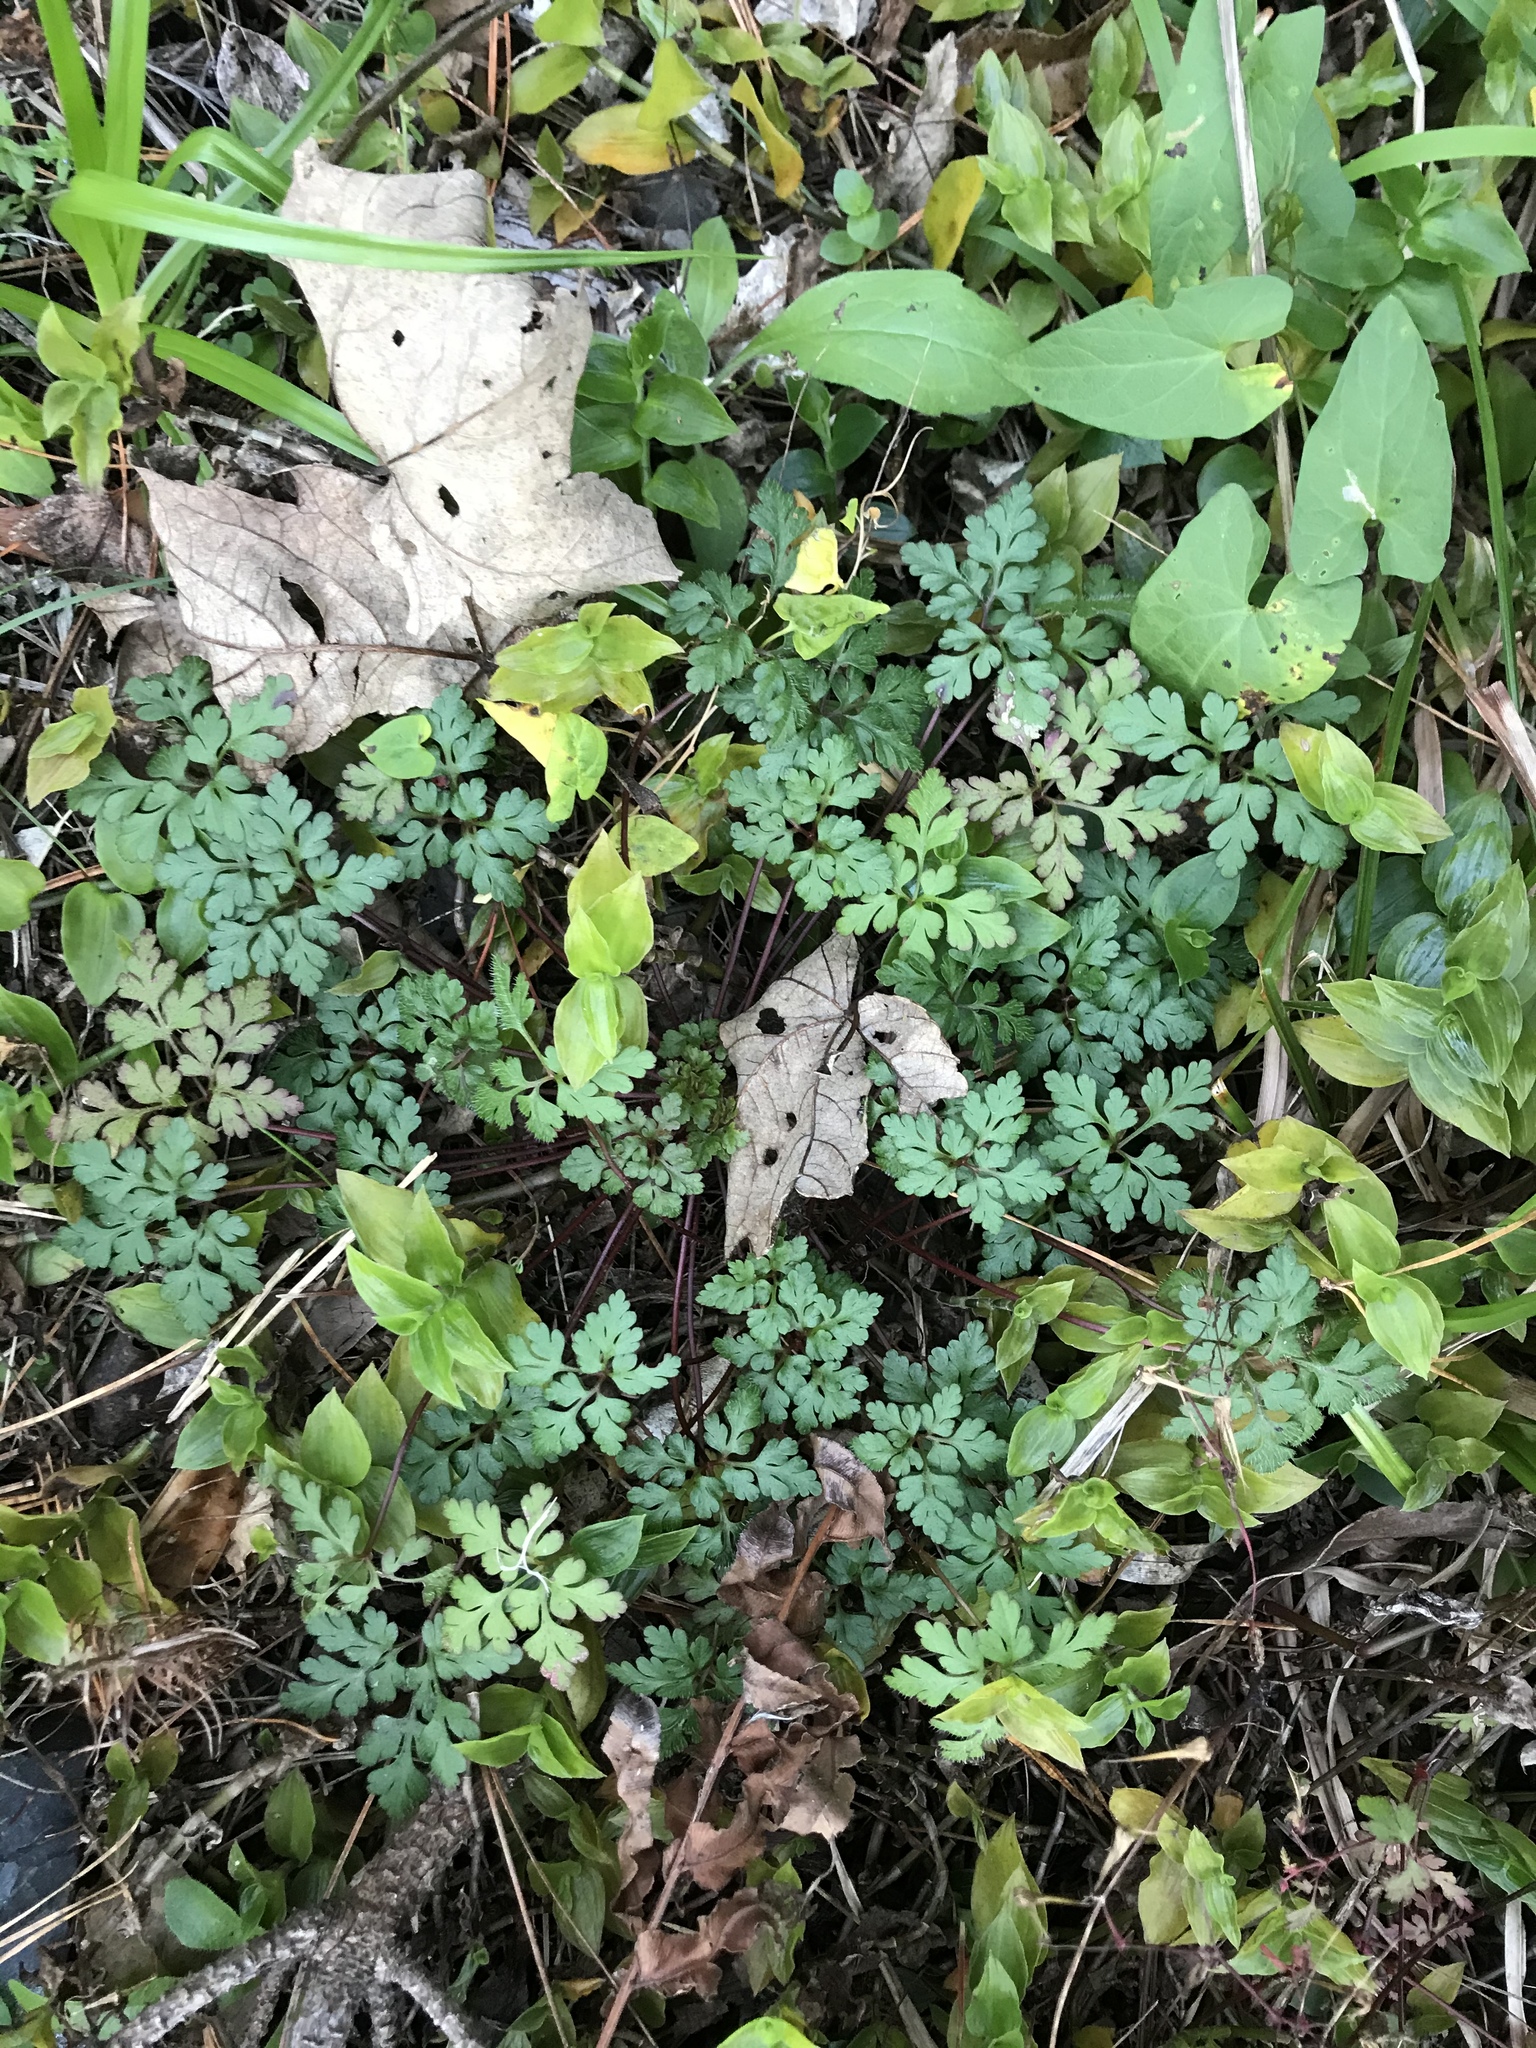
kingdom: Plantae
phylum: Tracheophyta
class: Magnoliopsida
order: Geraniales
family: Geraniaceae
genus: Geranium
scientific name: Geranium robertianum
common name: Herb-robert
